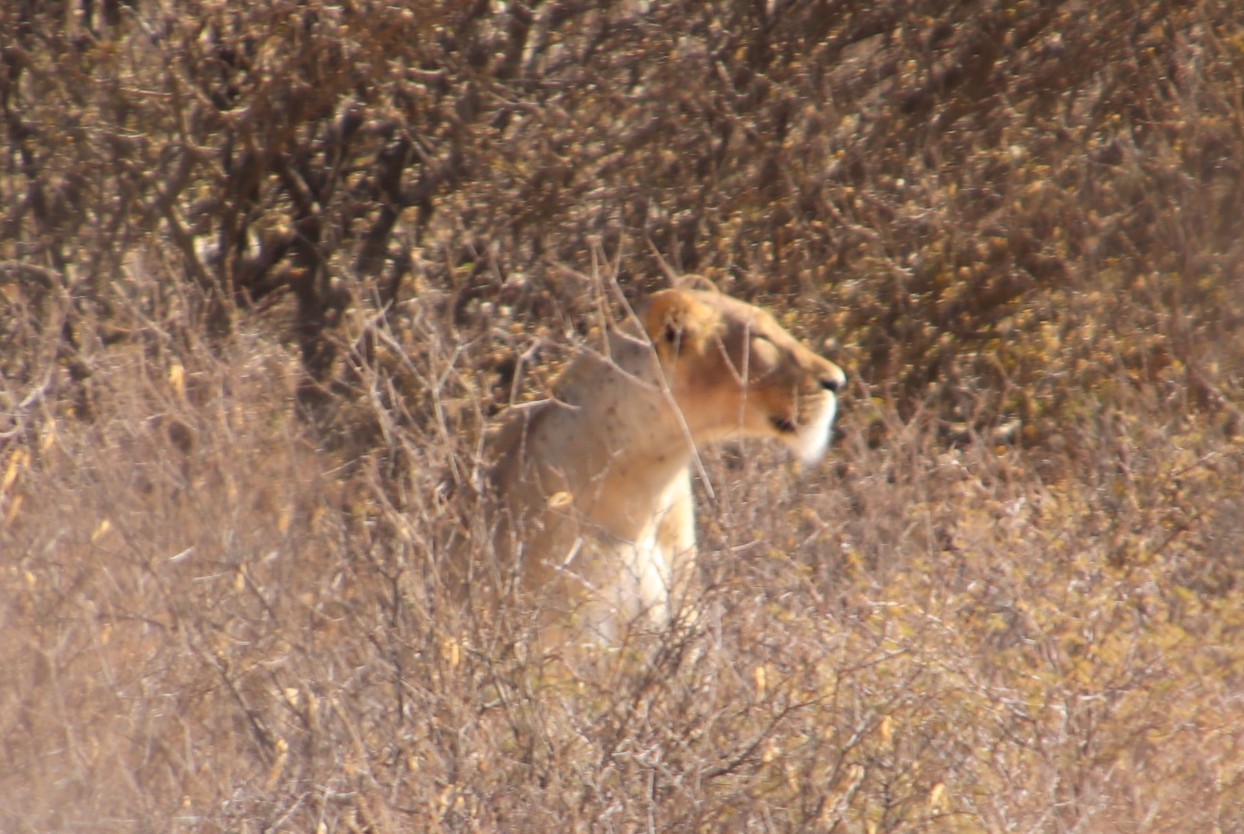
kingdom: Animalia
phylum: Chordata
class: Mammalia
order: Carnivora
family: Felidae
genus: Panthera
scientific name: Panthera leo
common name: Lion
